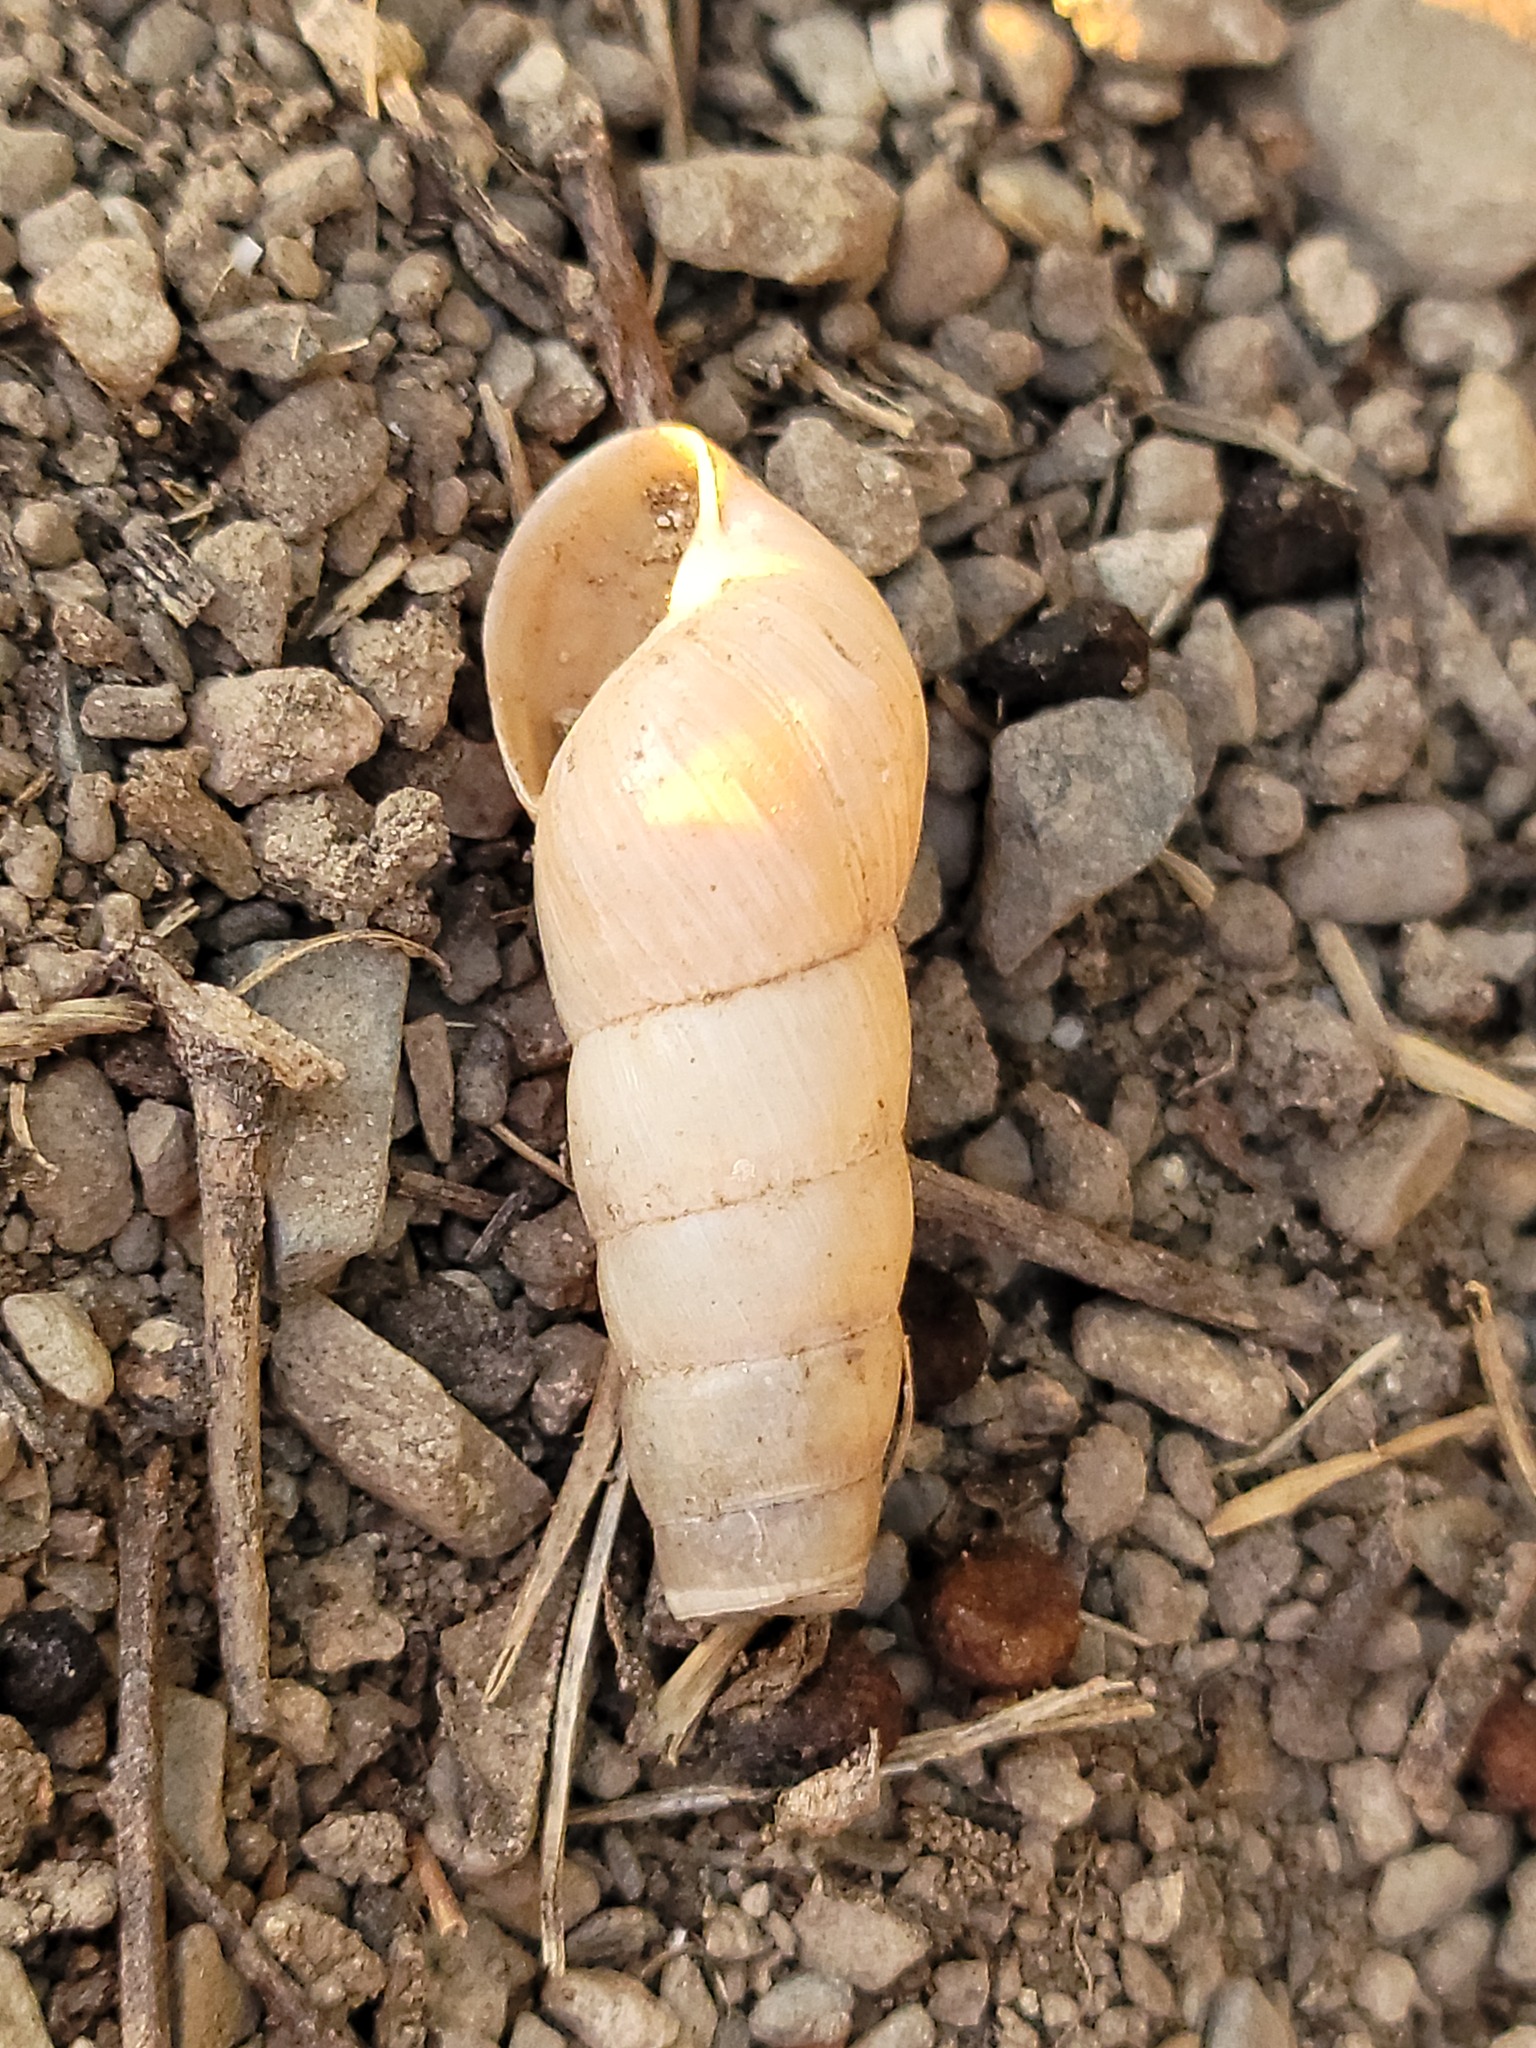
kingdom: Animalia
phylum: Mollusca
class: Gastropoda
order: Stylommatophora
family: Achatinidae
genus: Rumina
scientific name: Rumina decollata
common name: Decollate snail
